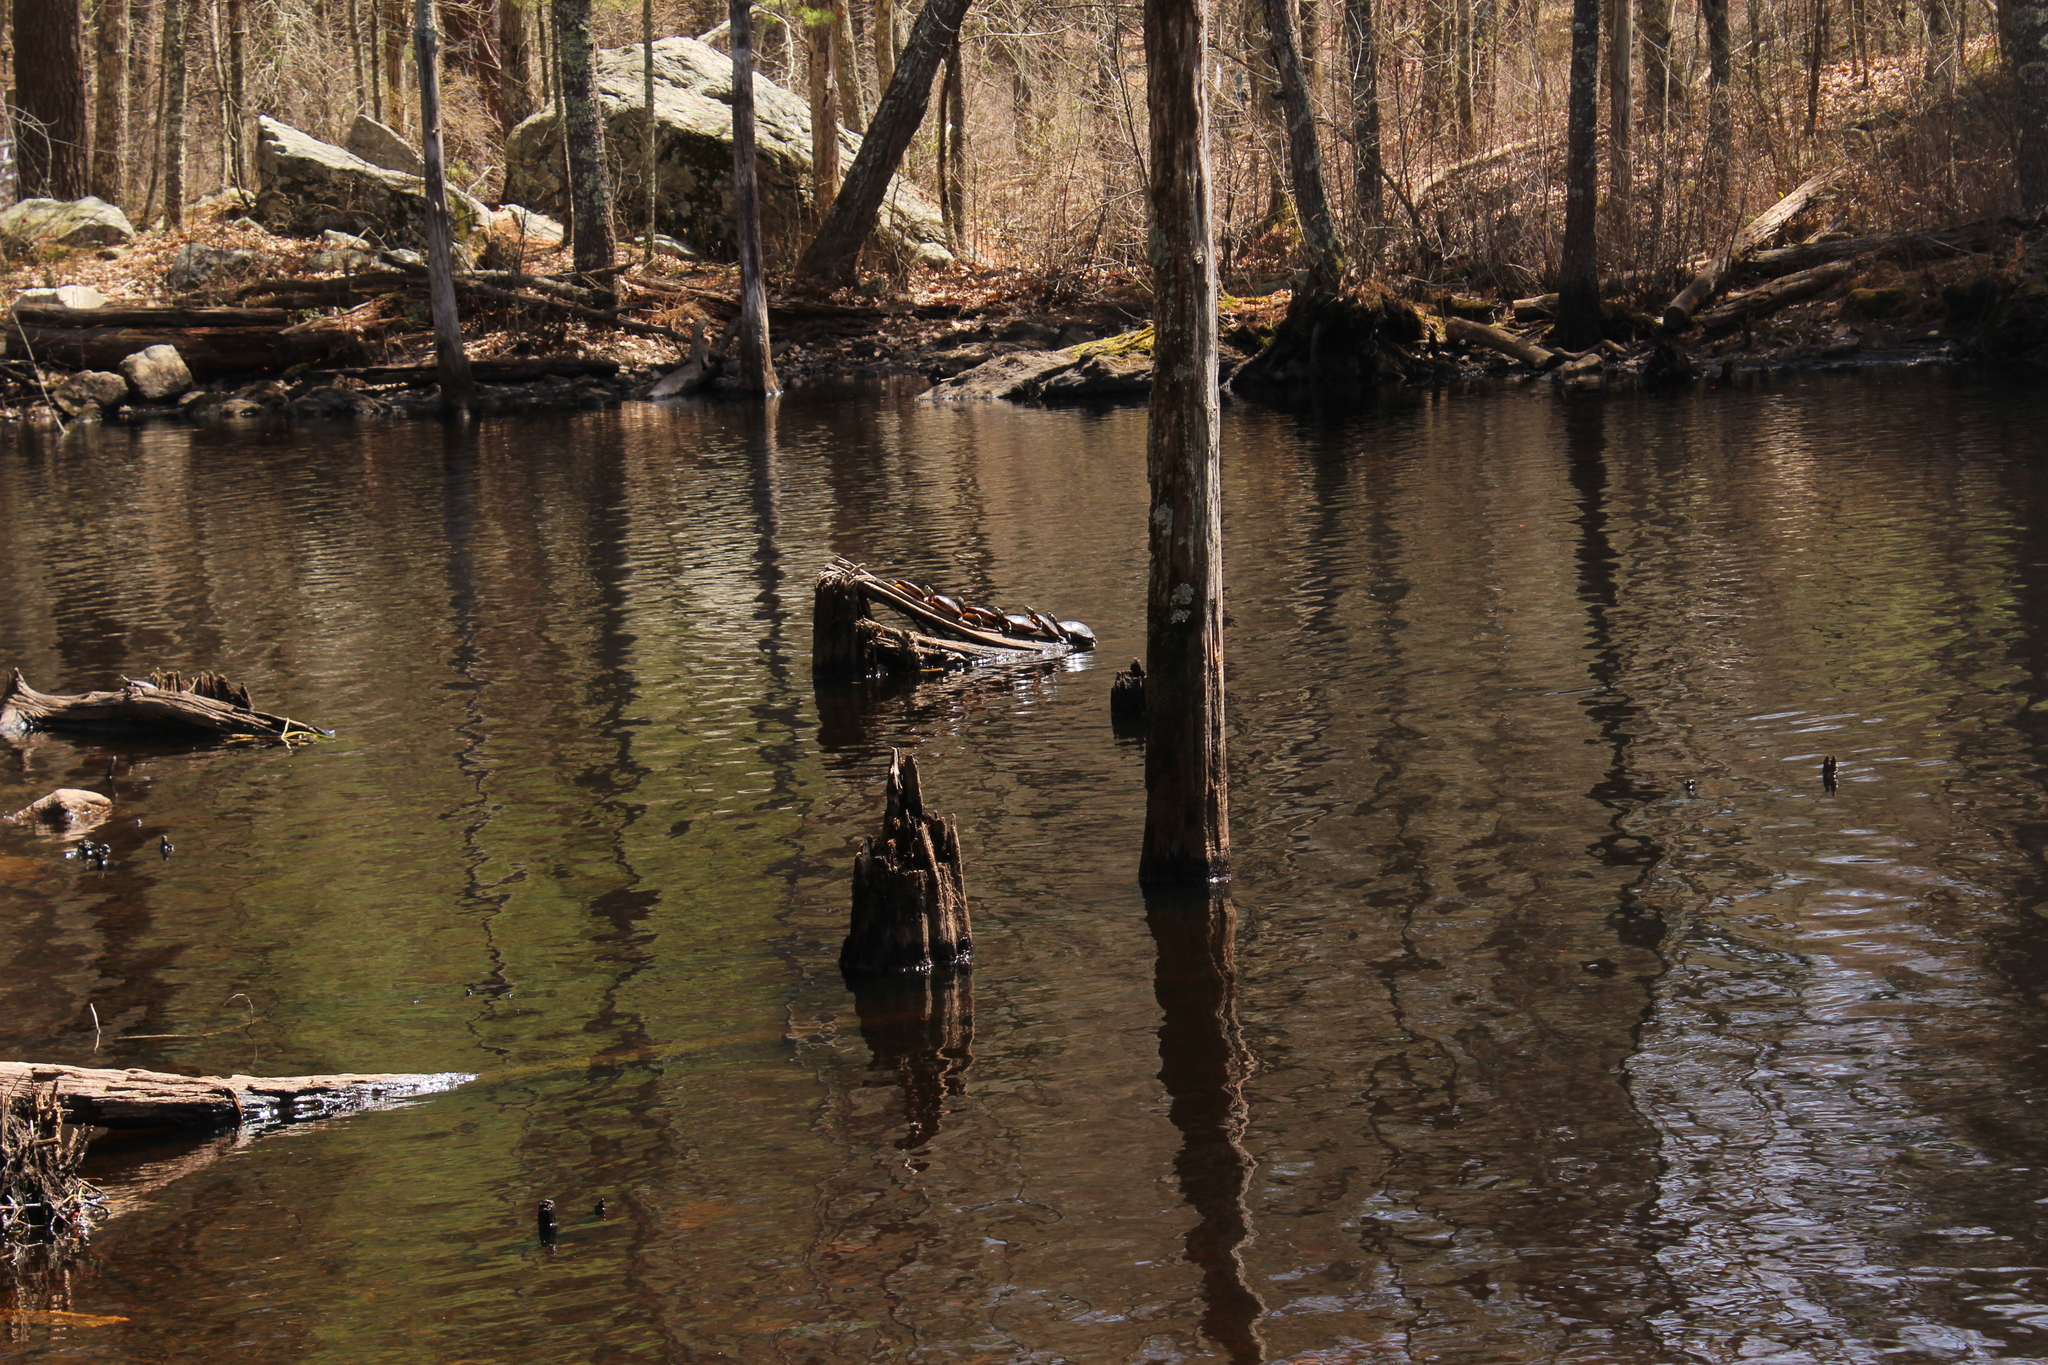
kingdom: Animalia
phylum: Chordata
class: Testudines
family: Emydidae
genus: Chrysemys
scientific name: Chrysemys picta
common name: Painted turtle
